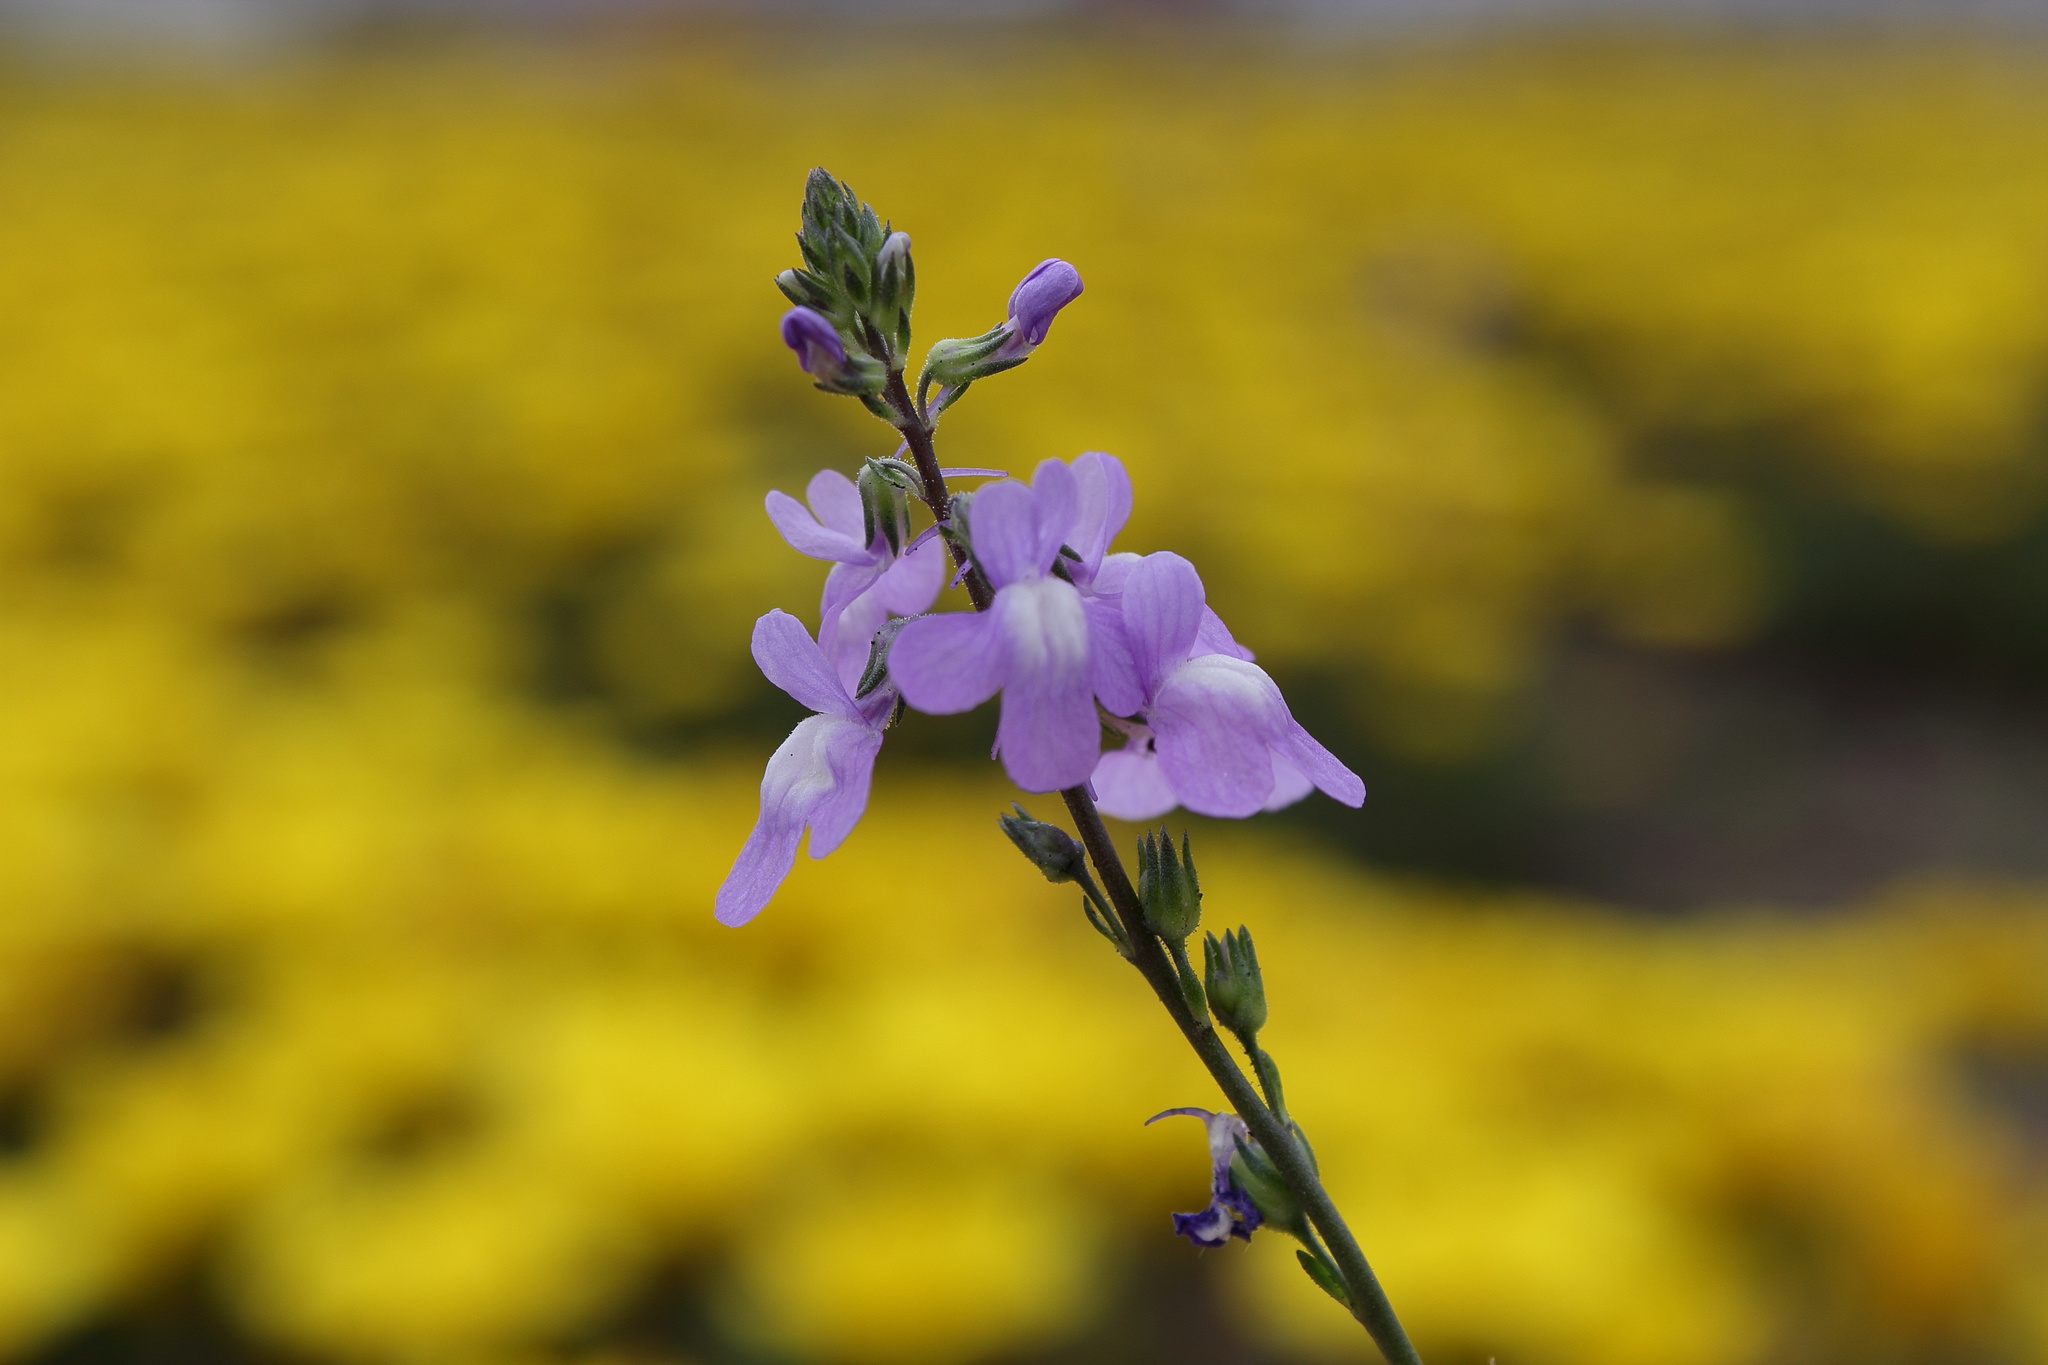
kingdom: Plantae
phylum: Tracheophyta
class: Magnoliopsida
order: Lamiales
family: Plantaginaceae
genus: Nuttallanthus
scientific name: Nuttallanthus canadensis
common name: Blue toadflax
